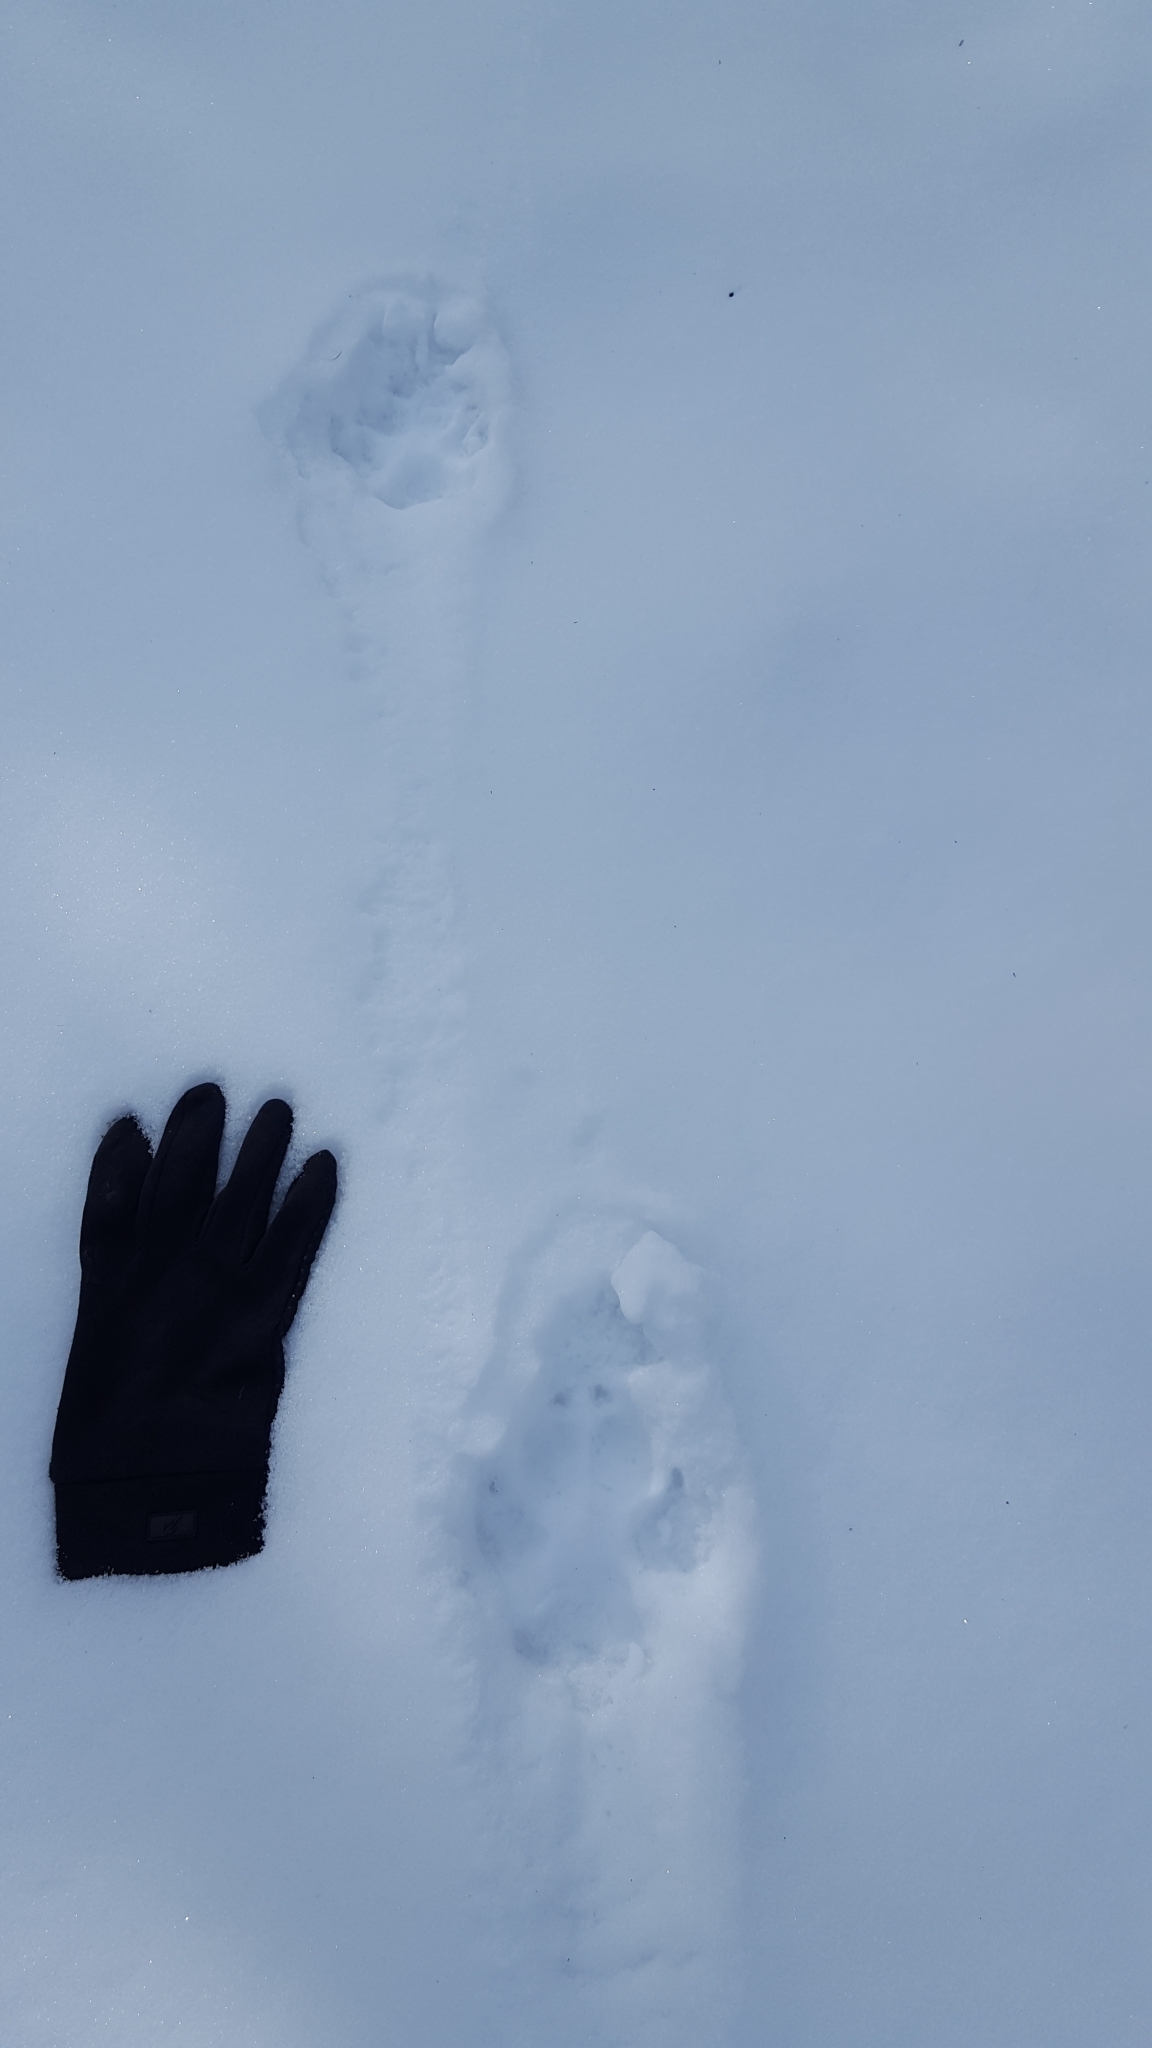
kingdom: Animalia
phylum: Chordata
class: Mammalia
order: Carnivora
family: Canidae
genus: Canis
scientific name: Canis lupus
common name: Gray wolf
